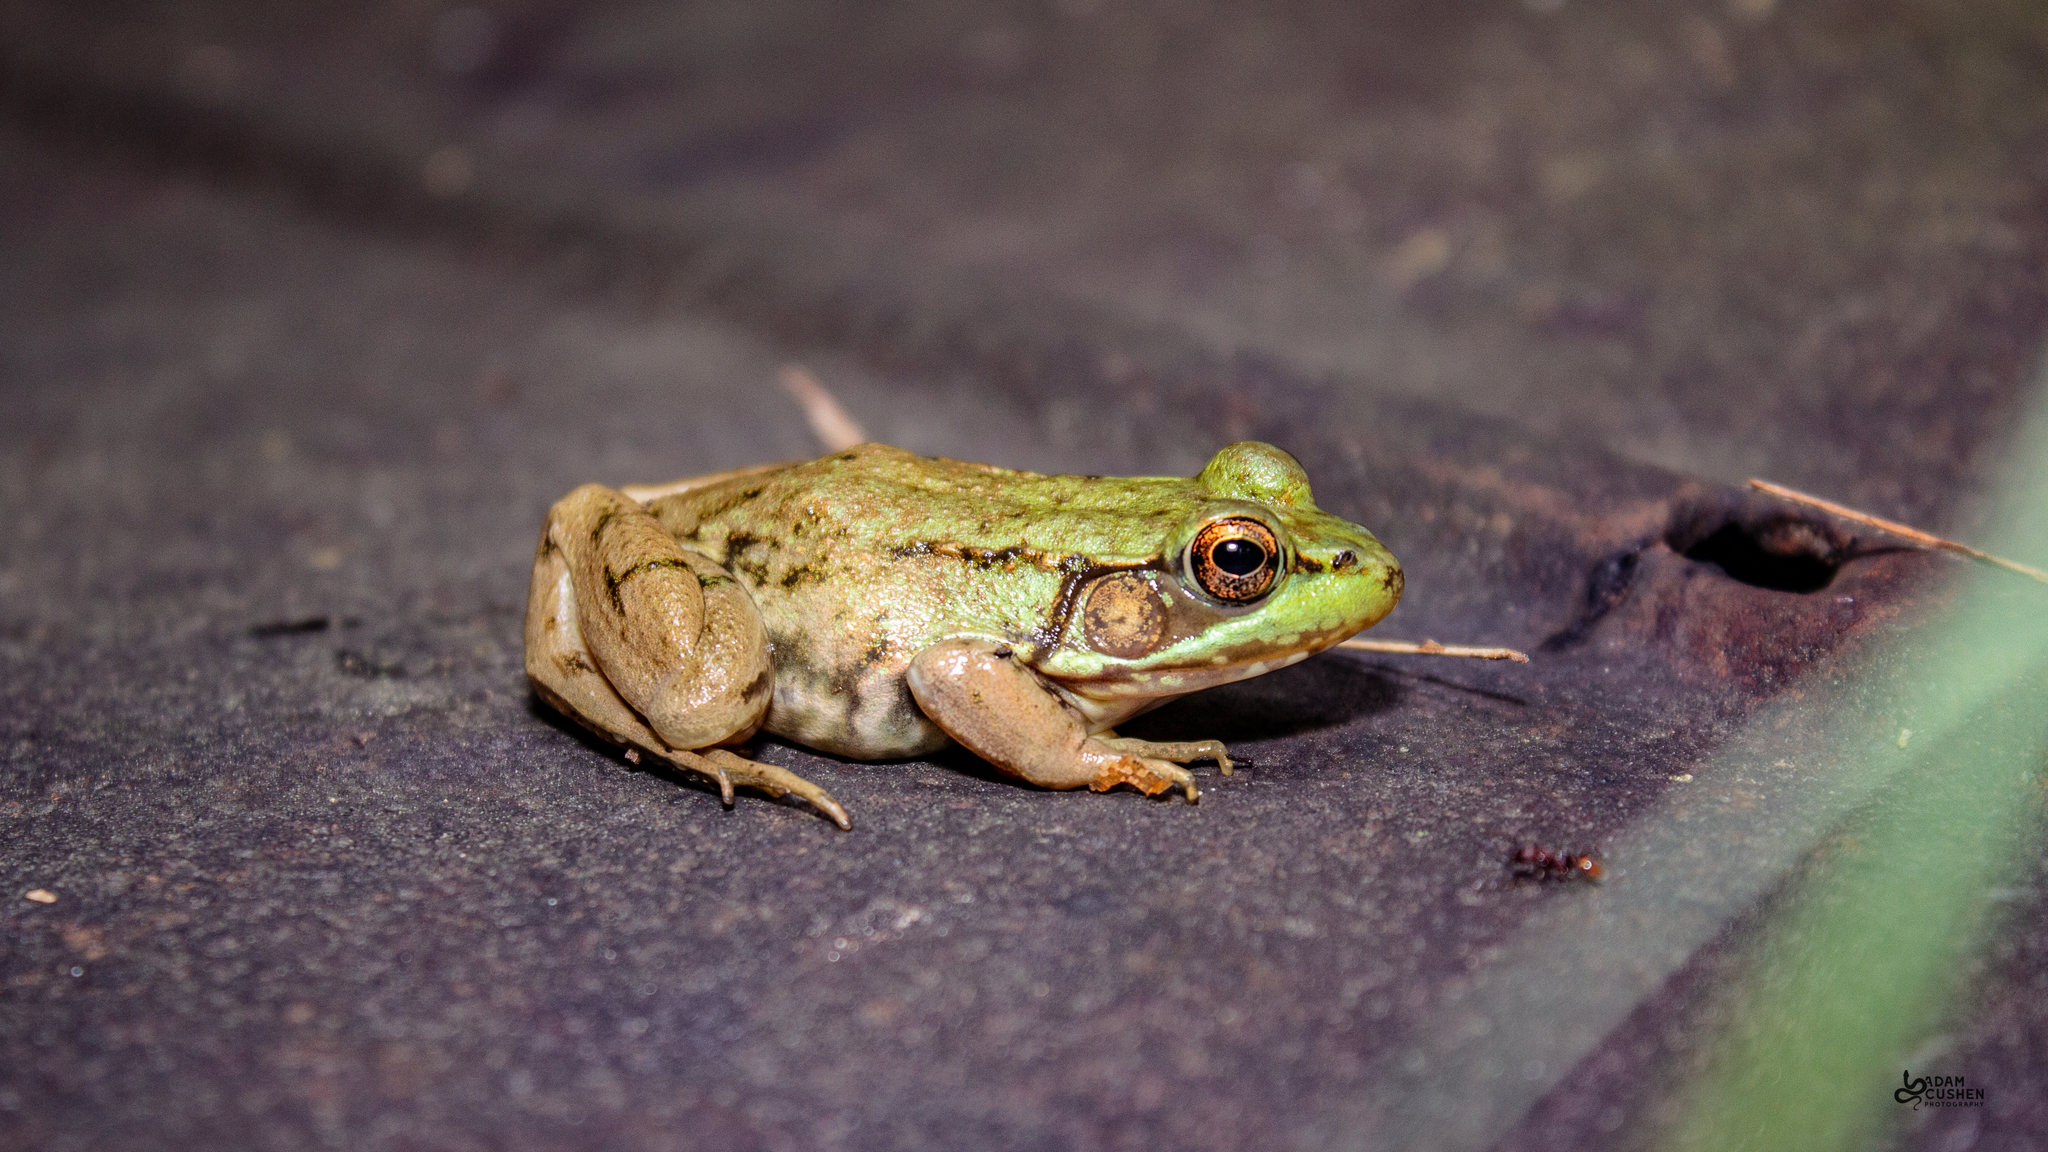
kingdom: Animalia
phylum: Chordata
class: Amphibia
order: Anura
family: Ranidae
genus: Lithobates
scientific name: Lithobates clamitans
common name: Green frog
